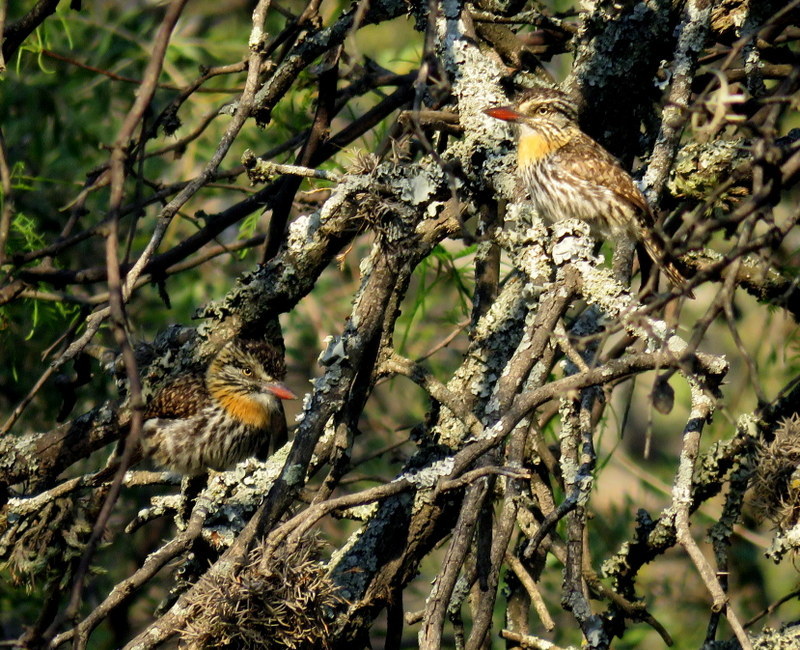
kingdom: Animalia
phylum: Chordata
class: Aves
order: Piciformes
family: Bucconidae
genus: Nystalus
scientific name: Nystalus maculatus
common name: Caatinga puffbird
